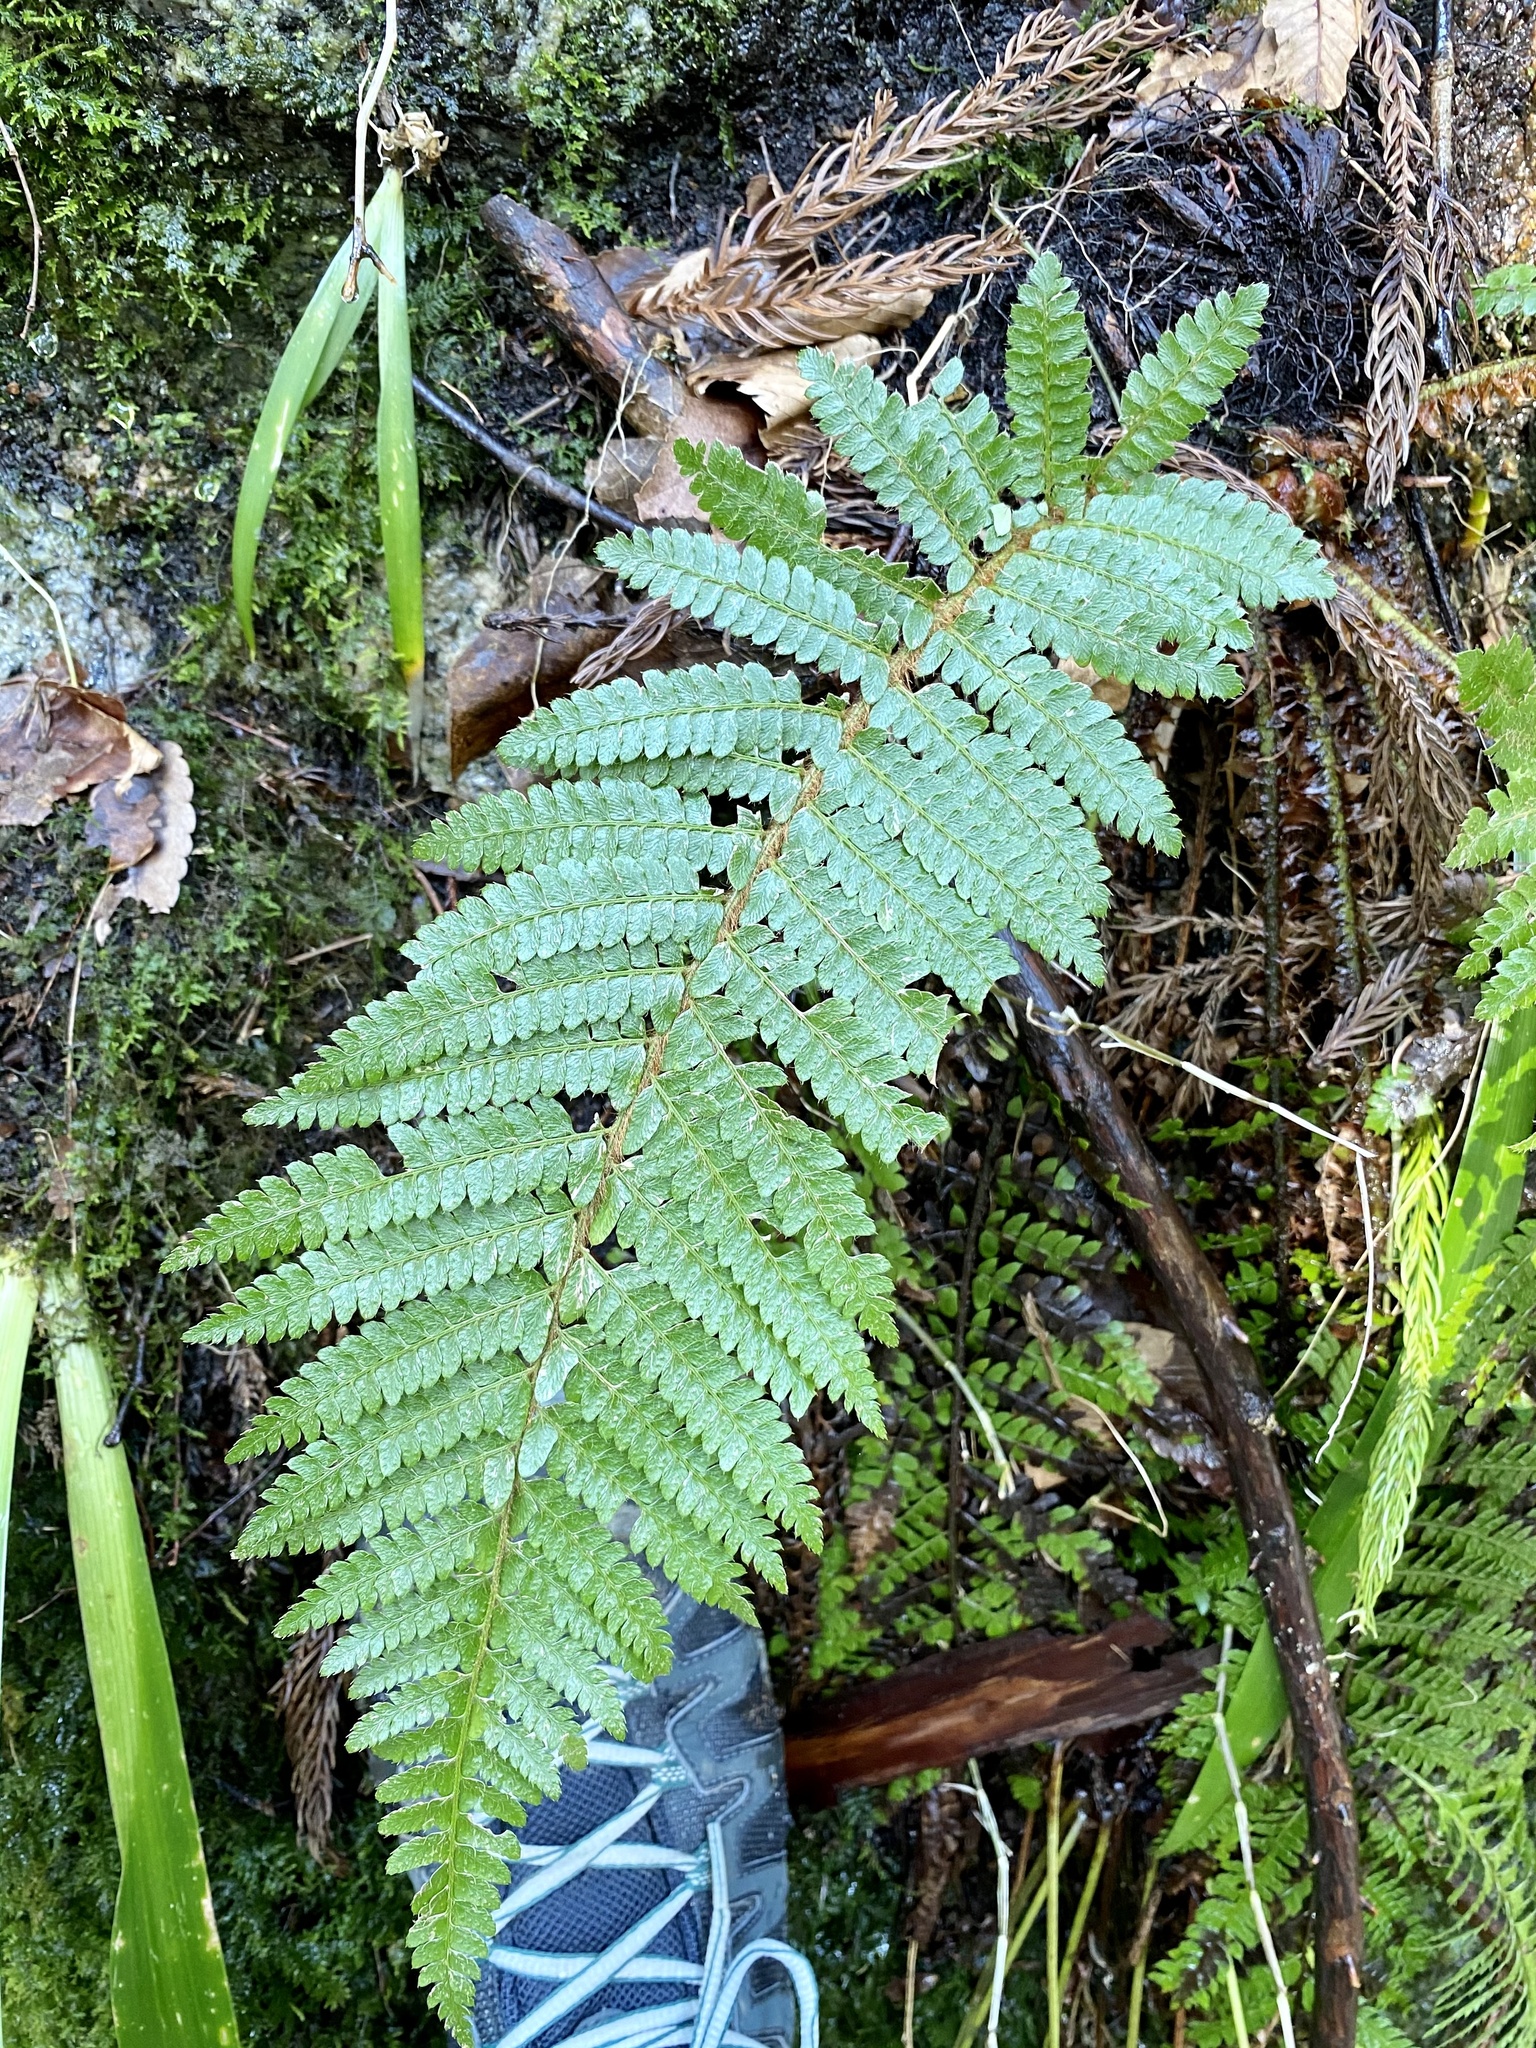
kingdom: Plantae
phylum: Tracheophyta
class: Polypodiopsida
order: Polypodiales
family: Dryopteridaceae
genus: Polystichum
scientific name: Polystichum luctuosum
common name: Korean rockfern
